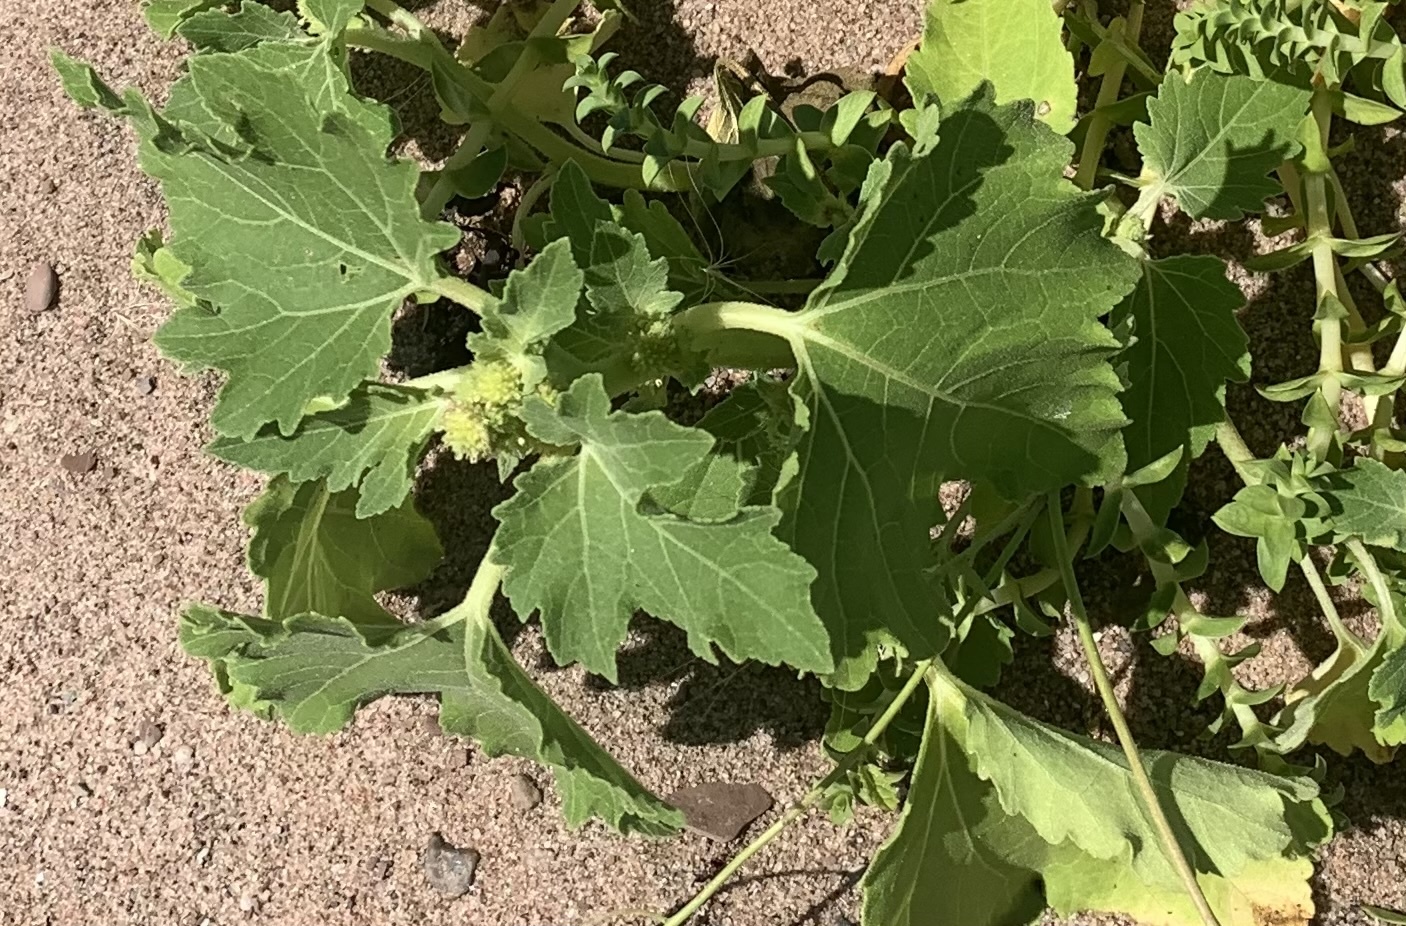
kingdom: Plantae
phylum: Tracheophyta
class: Magnoliopsida
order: Asterales
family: Asteraceae
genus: Xanthium
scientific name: Xanthium strumarium
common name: Rough cocklebur
